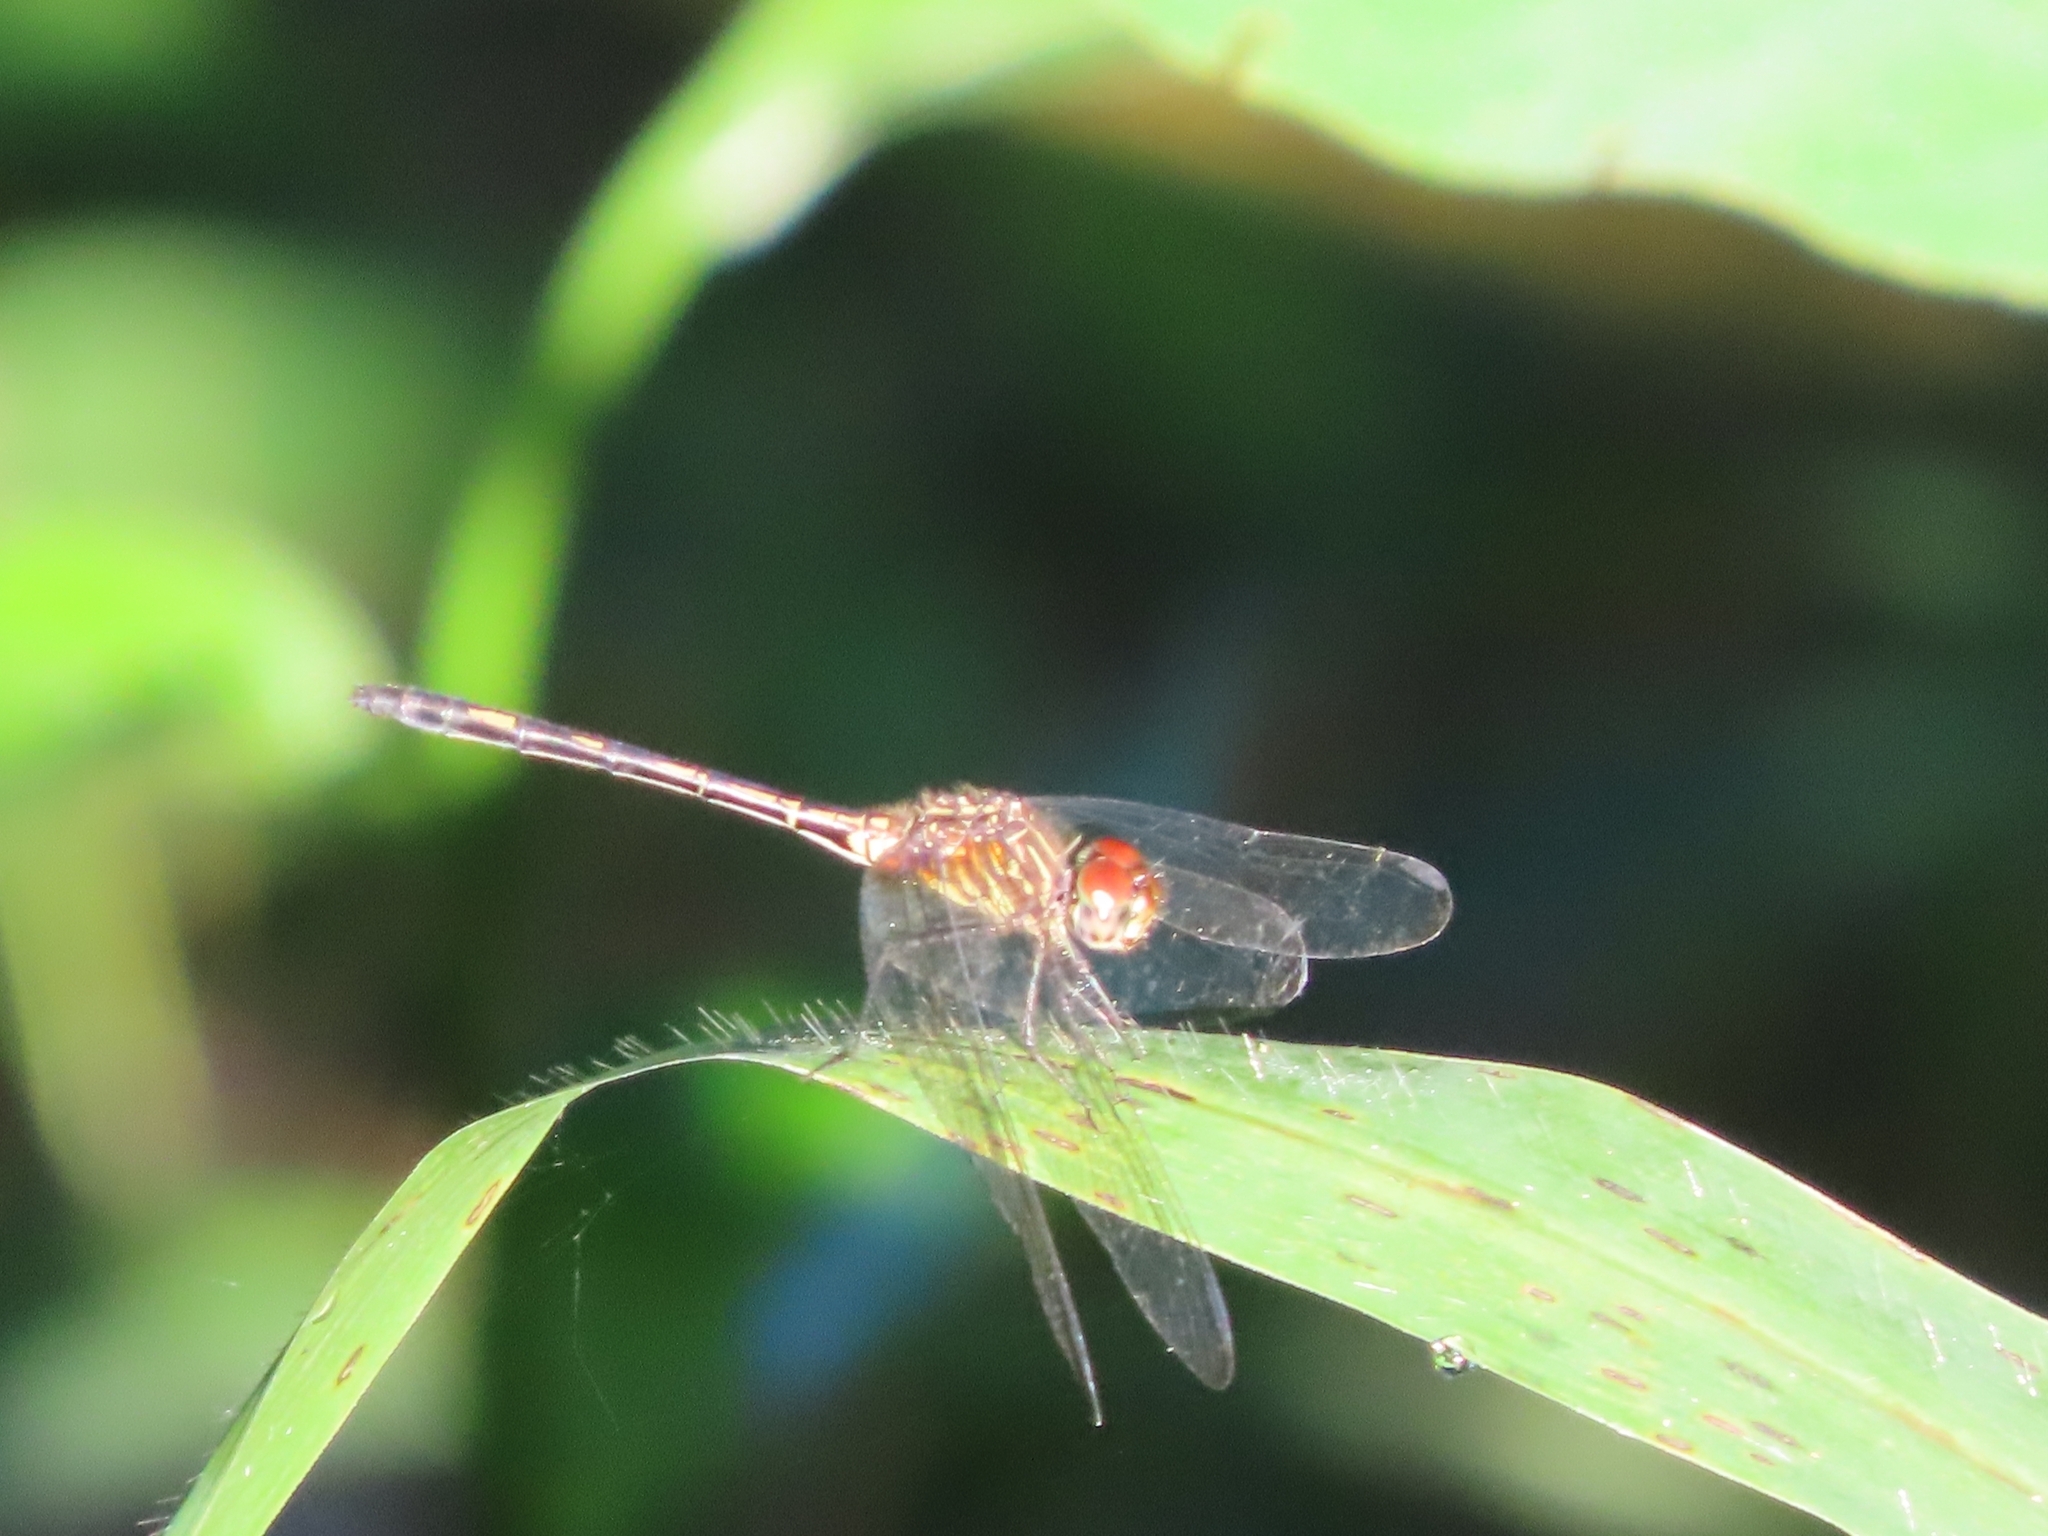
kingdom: Animalia
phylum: Arthropoda
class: Insecta
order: Odonata
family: Libellulidae
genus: Dythemis
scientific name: Dythemis sterilis
